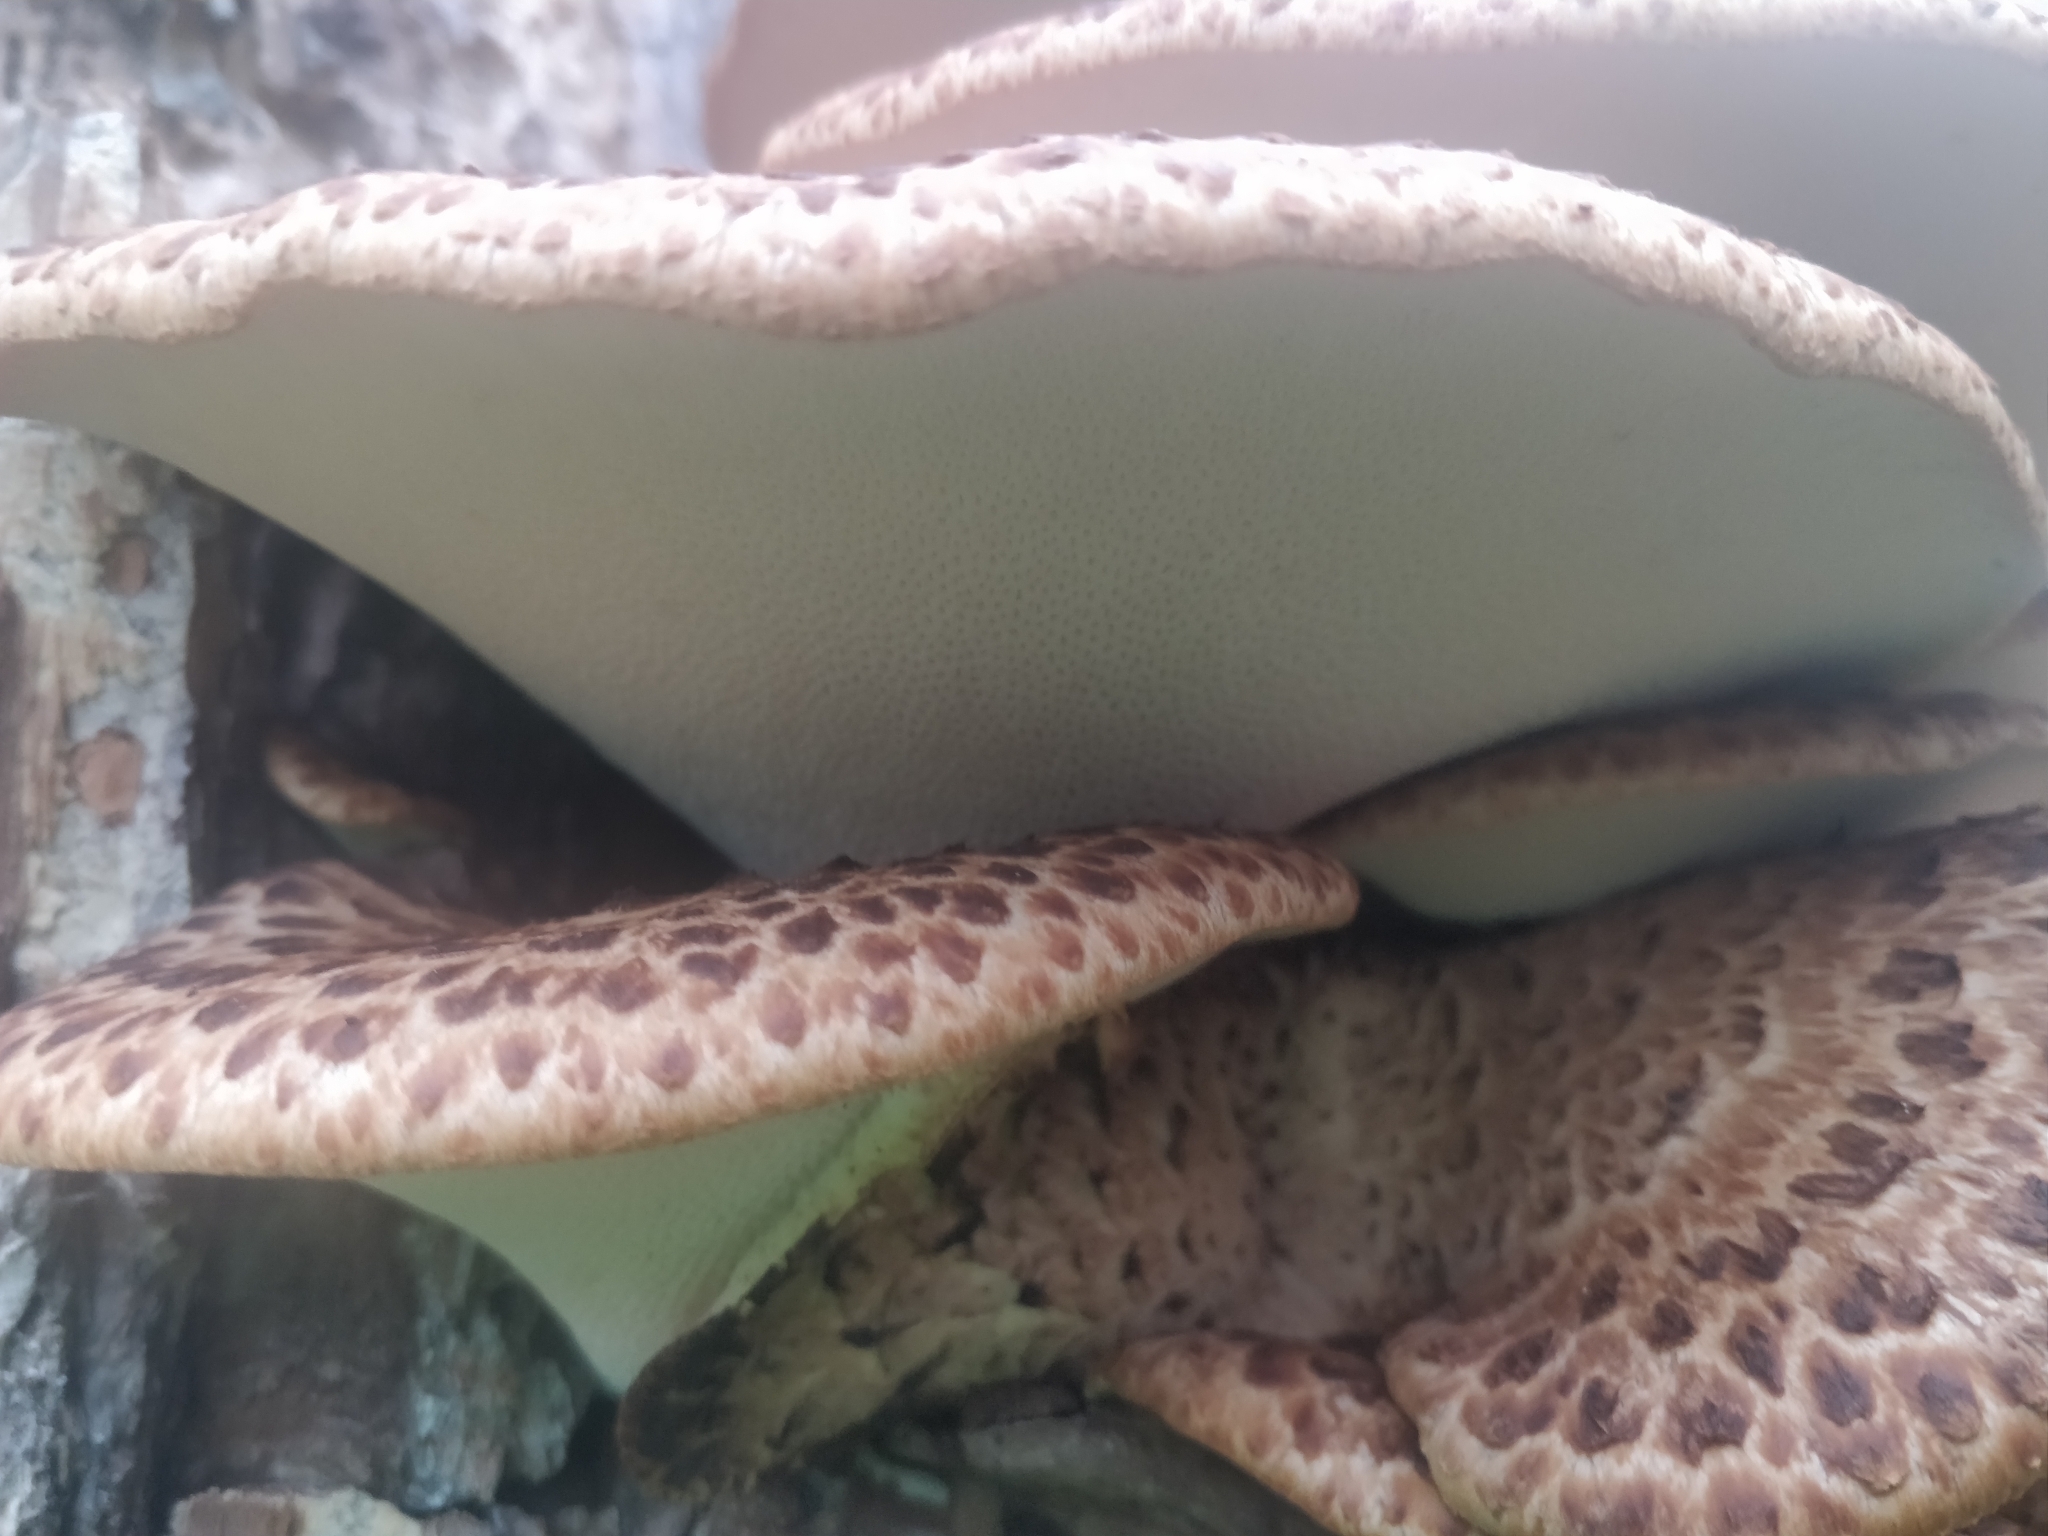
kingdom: Fungi
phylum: Basidiomycota
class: Agaricomycetes
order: Polyporales
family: Polyporaceae
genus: Cerioporus
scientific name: Cerioporus squamosus
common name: Dryad's saddle
